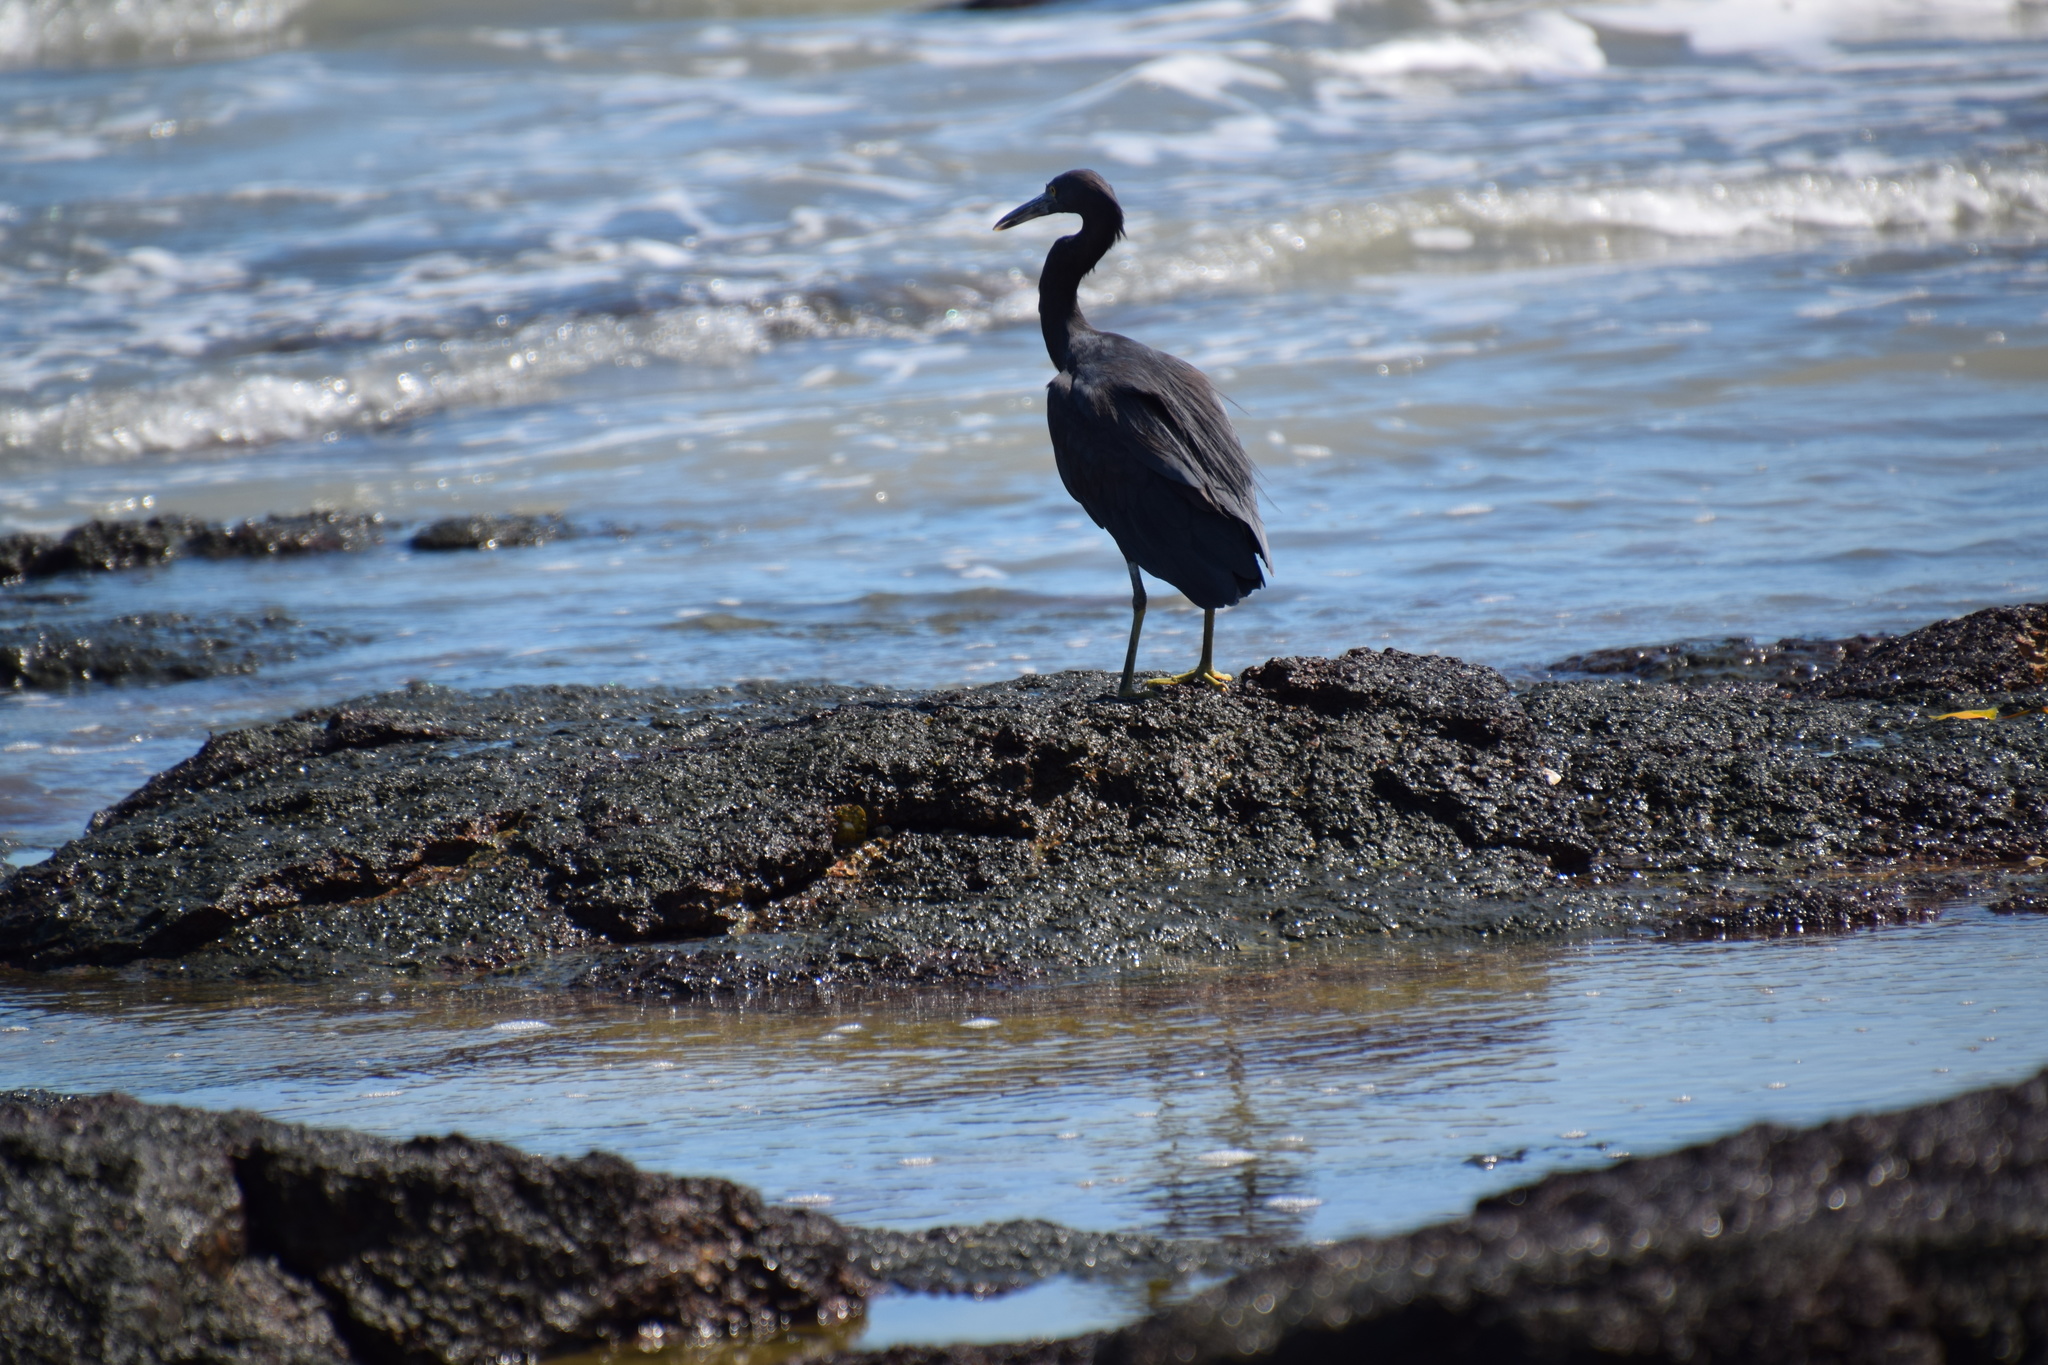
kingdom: Animalia
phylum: Chordata
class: Aves
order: Pelecaniformes
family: Ardeidae
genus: Egretta
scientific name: Egretta sacra
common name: Pacific reef heron
